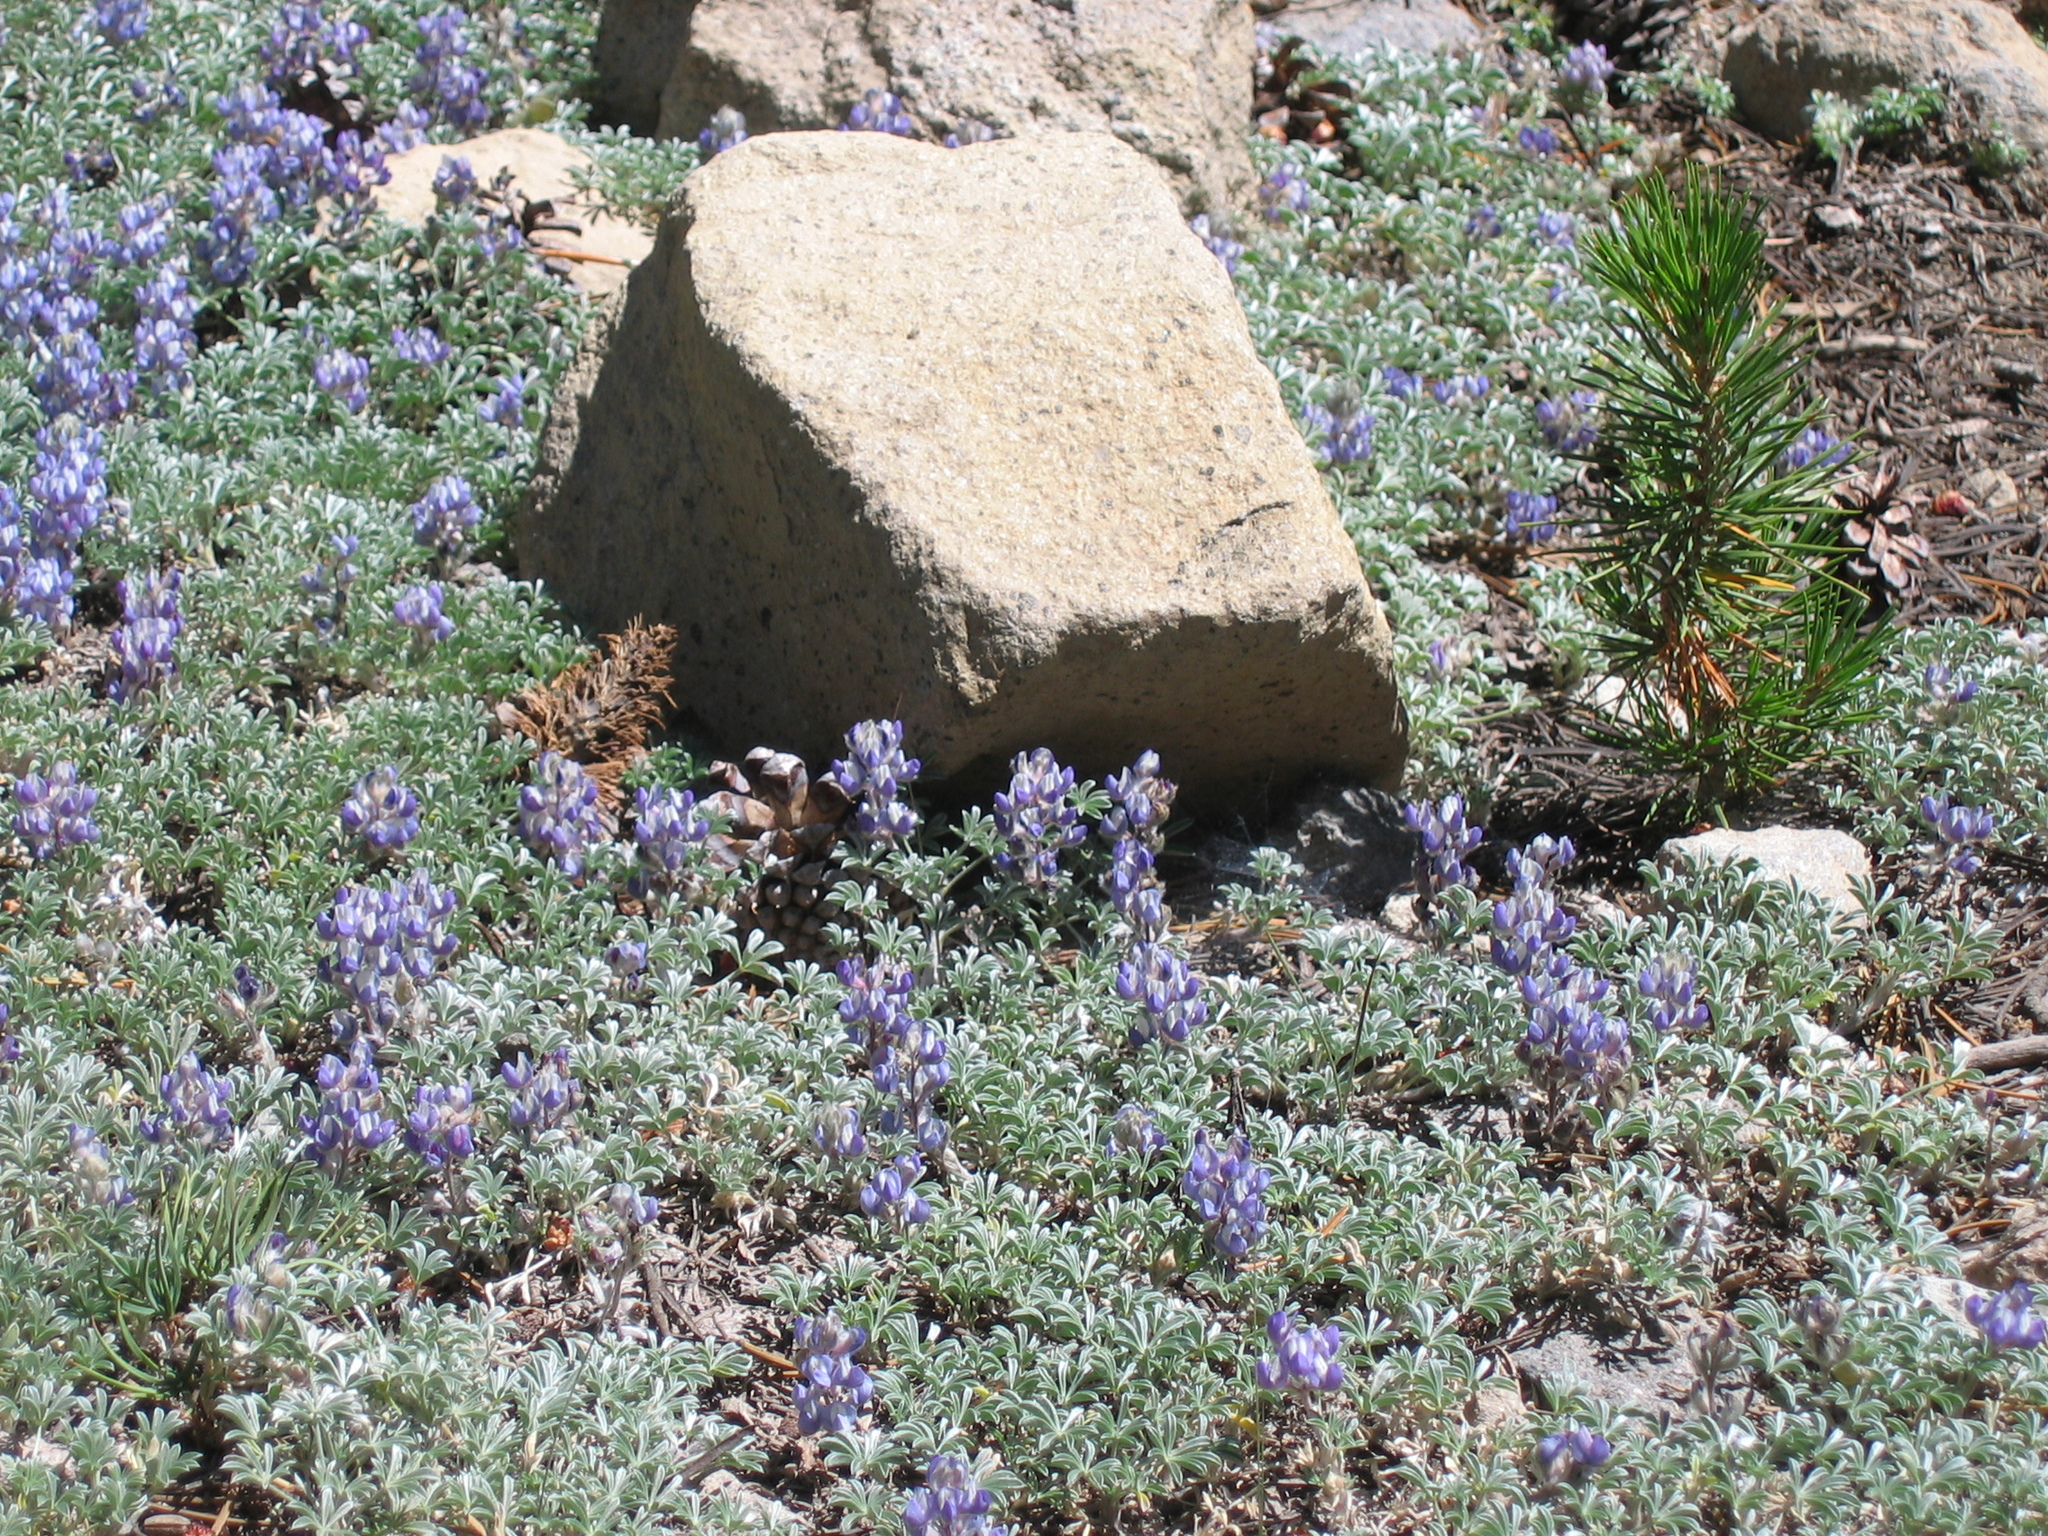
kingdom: Plantae
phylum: Tracheophyta
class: Magnoliopsida
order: Fabales
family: Fabaceae
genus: Lupinus
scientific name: Lupinus breweri
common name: Brewer's lupine
